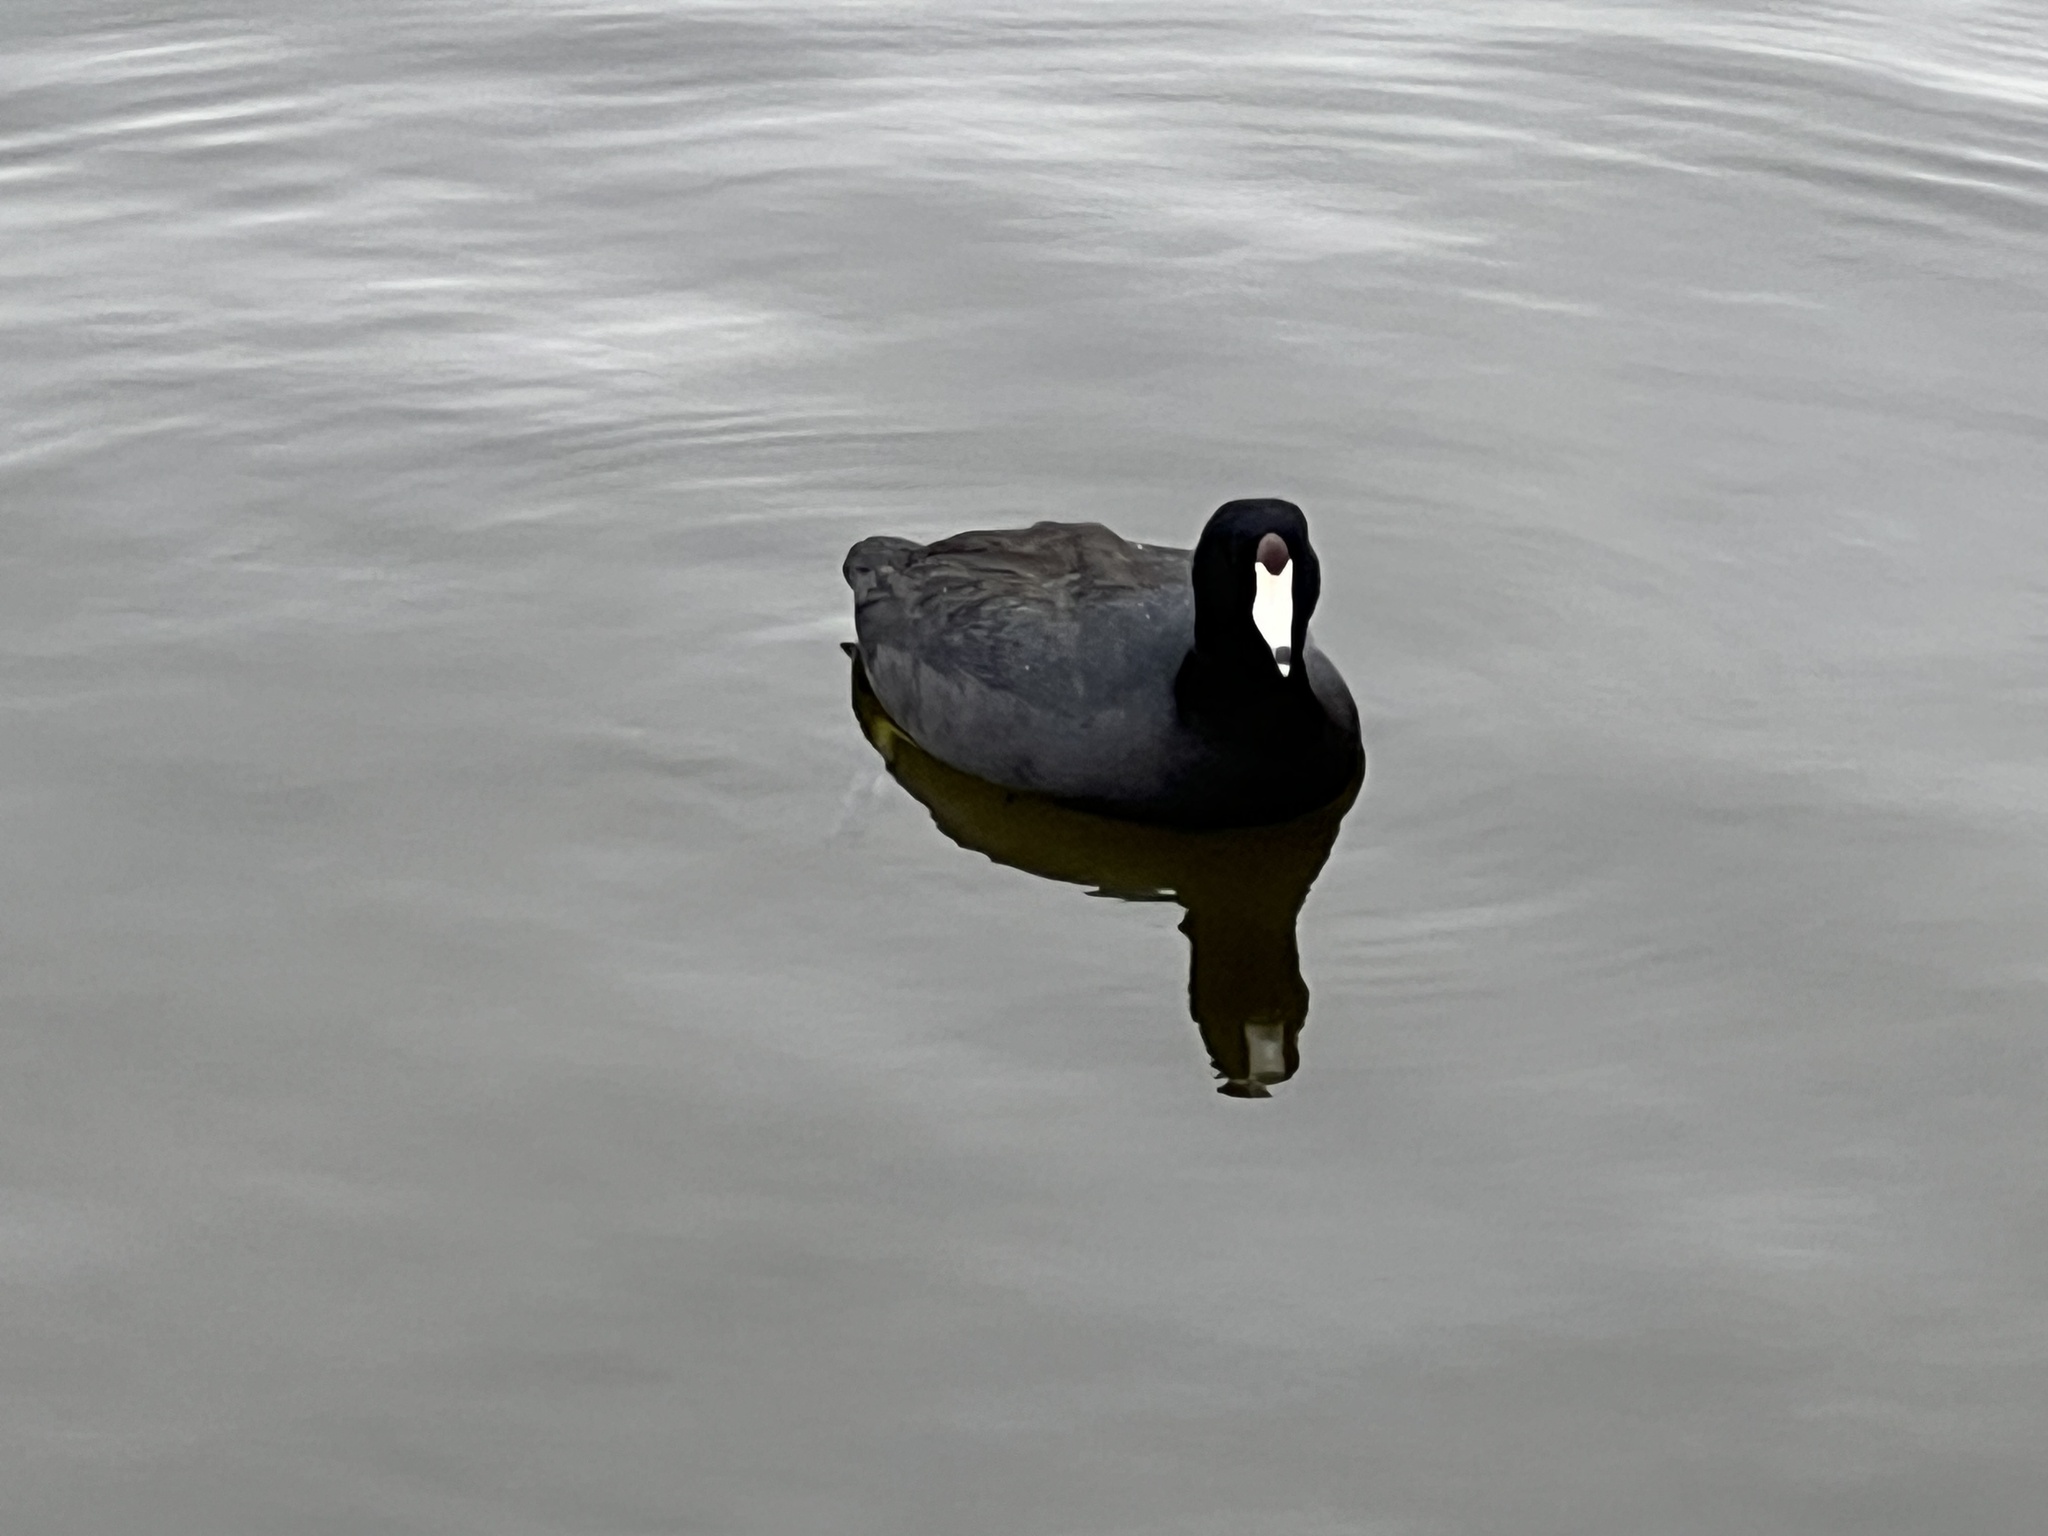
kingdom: Animalia
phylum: Chordata
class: Aves
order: Gruiformes
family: Rallidae
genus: Fulica
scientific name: Fulica americana
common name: American coot
